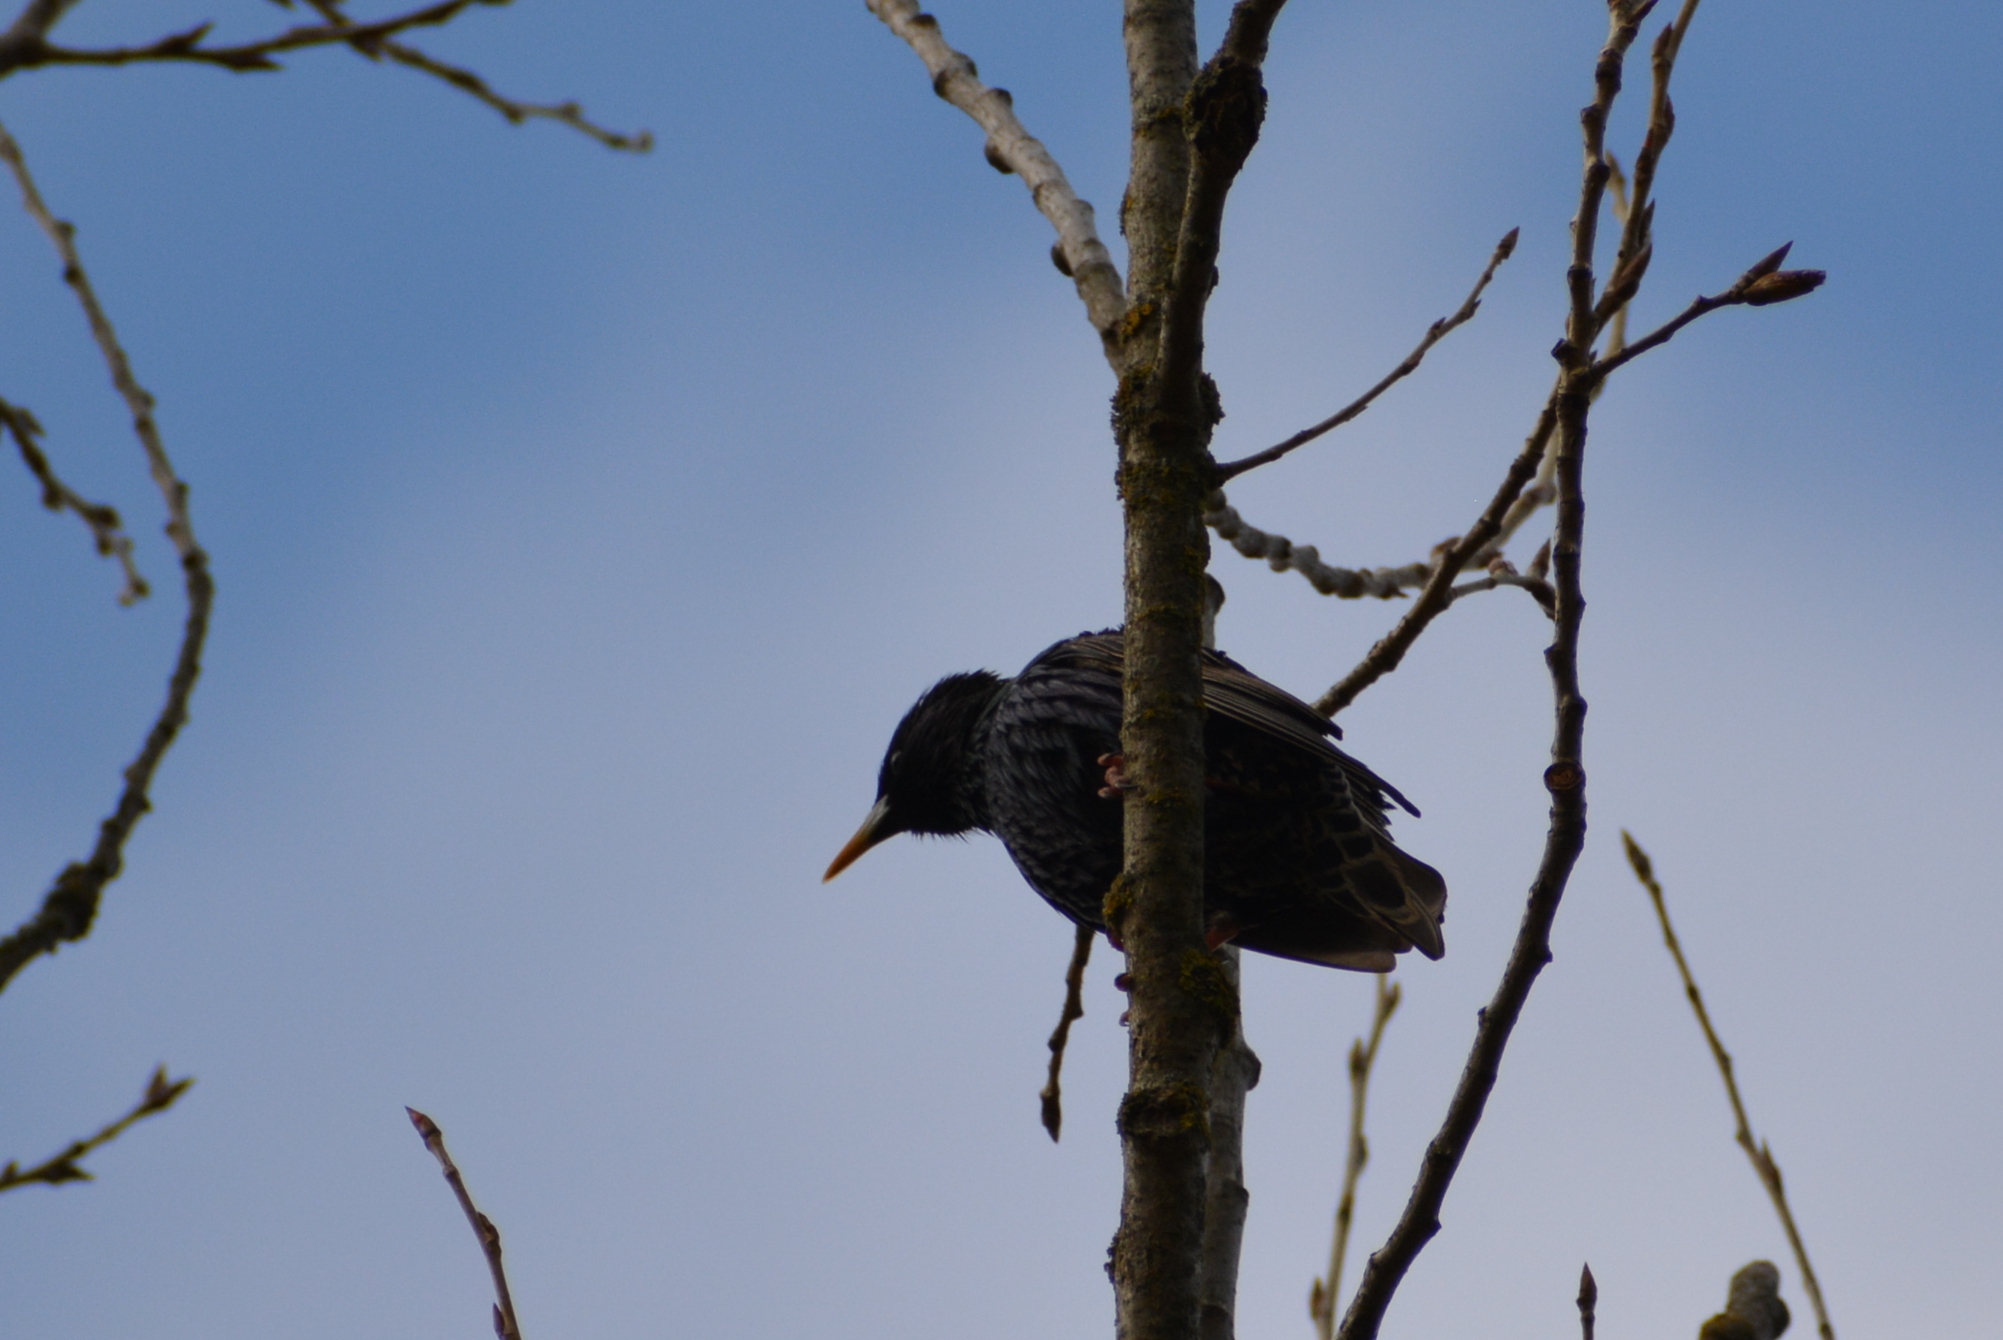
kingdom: Animalia
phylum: Chordata
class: Aves
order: Passeriformes
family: Sturnidae
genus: Sturnus
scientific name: Sturnus vulgaris
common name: Common starling
